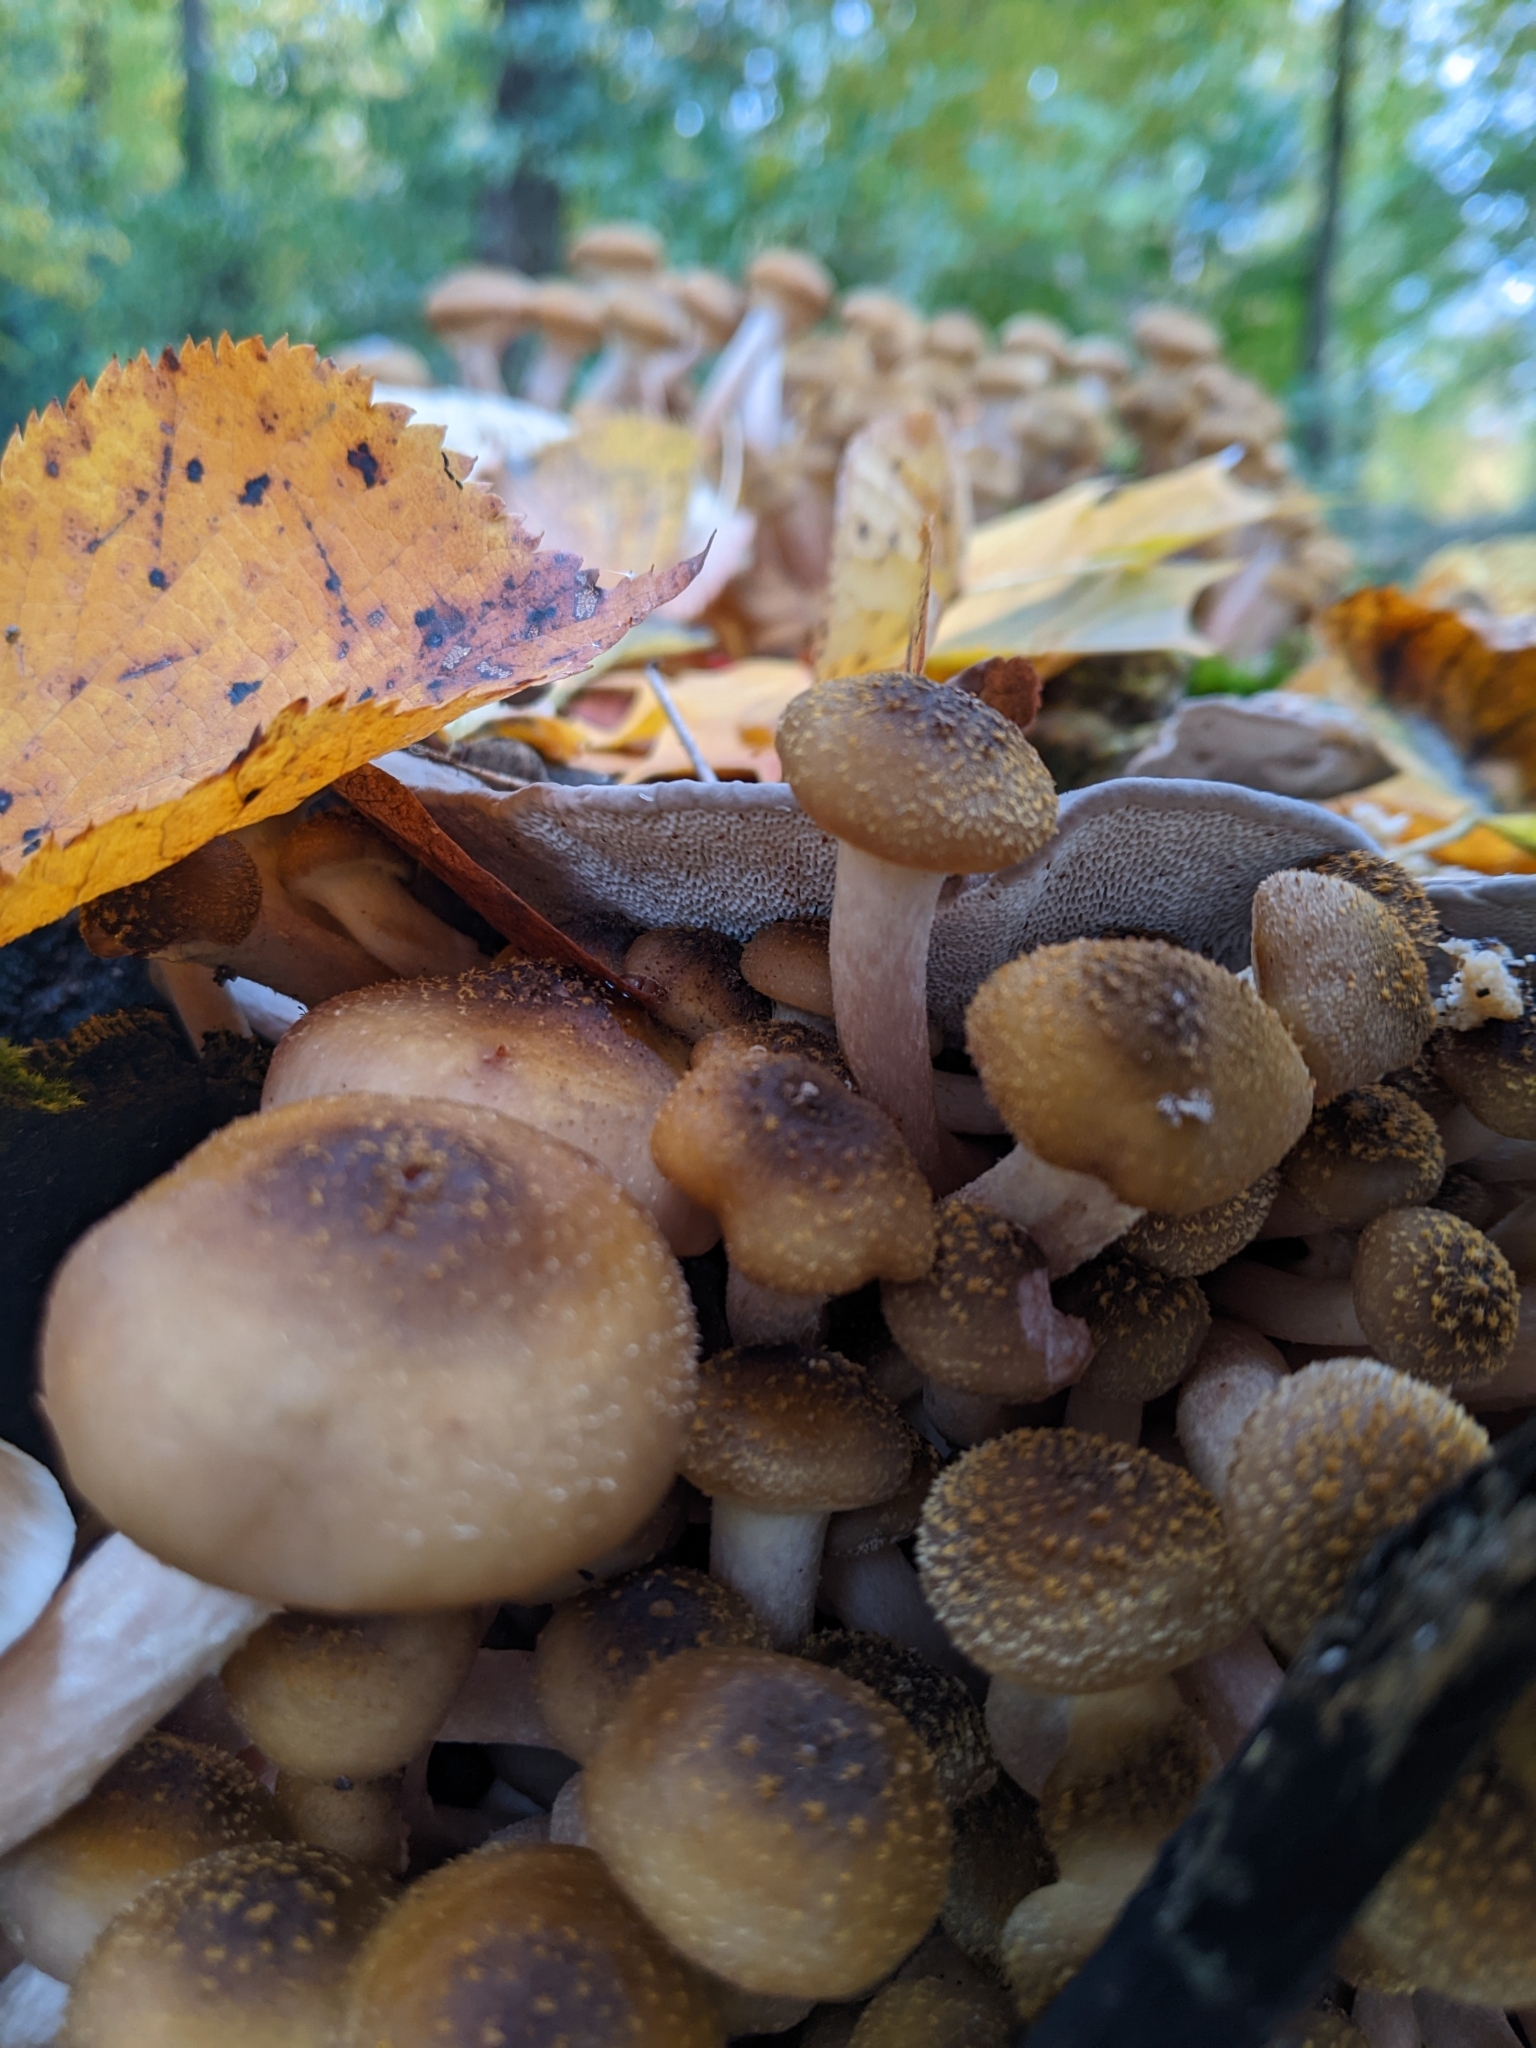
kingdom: Fungi
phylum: Basidiomycota
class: Agaricomycetes
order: Polyporales
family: Polyporaceae
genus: Trametes
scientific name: Trametes gibbosa
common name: Lumpy bracket
